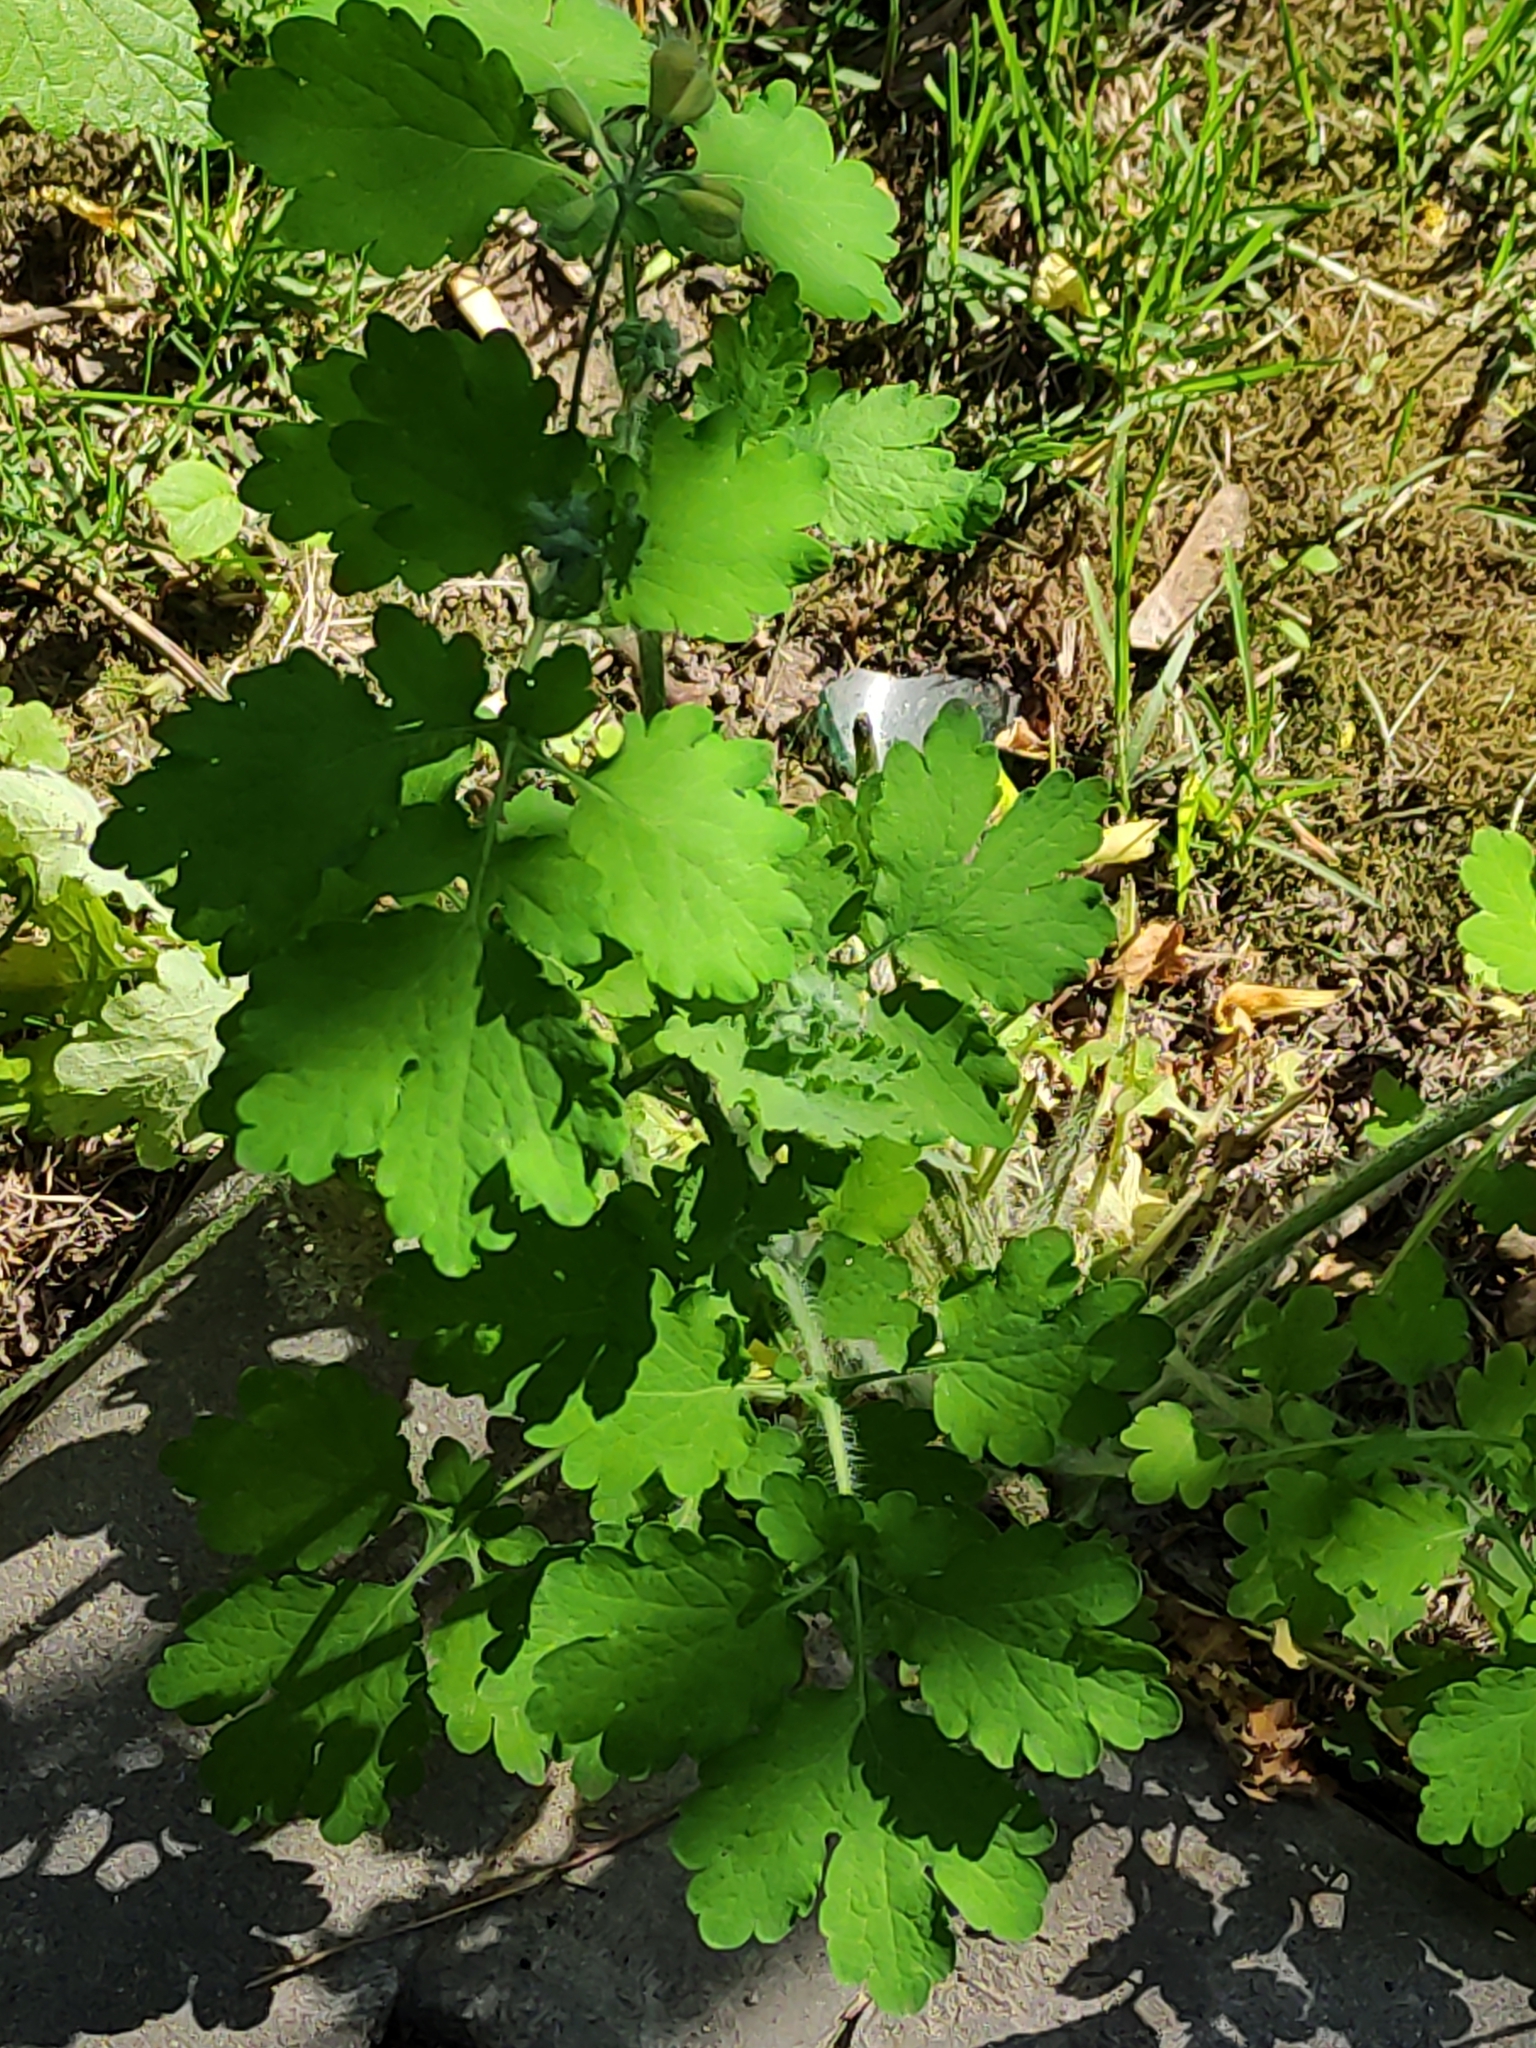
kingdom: Plantae
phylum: Tracheophyta
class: Magnoliopsida
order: Ranunculales
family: Papaveraceae
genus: Chelidonium
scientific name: Chelidonium majus
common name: Greater celandine
